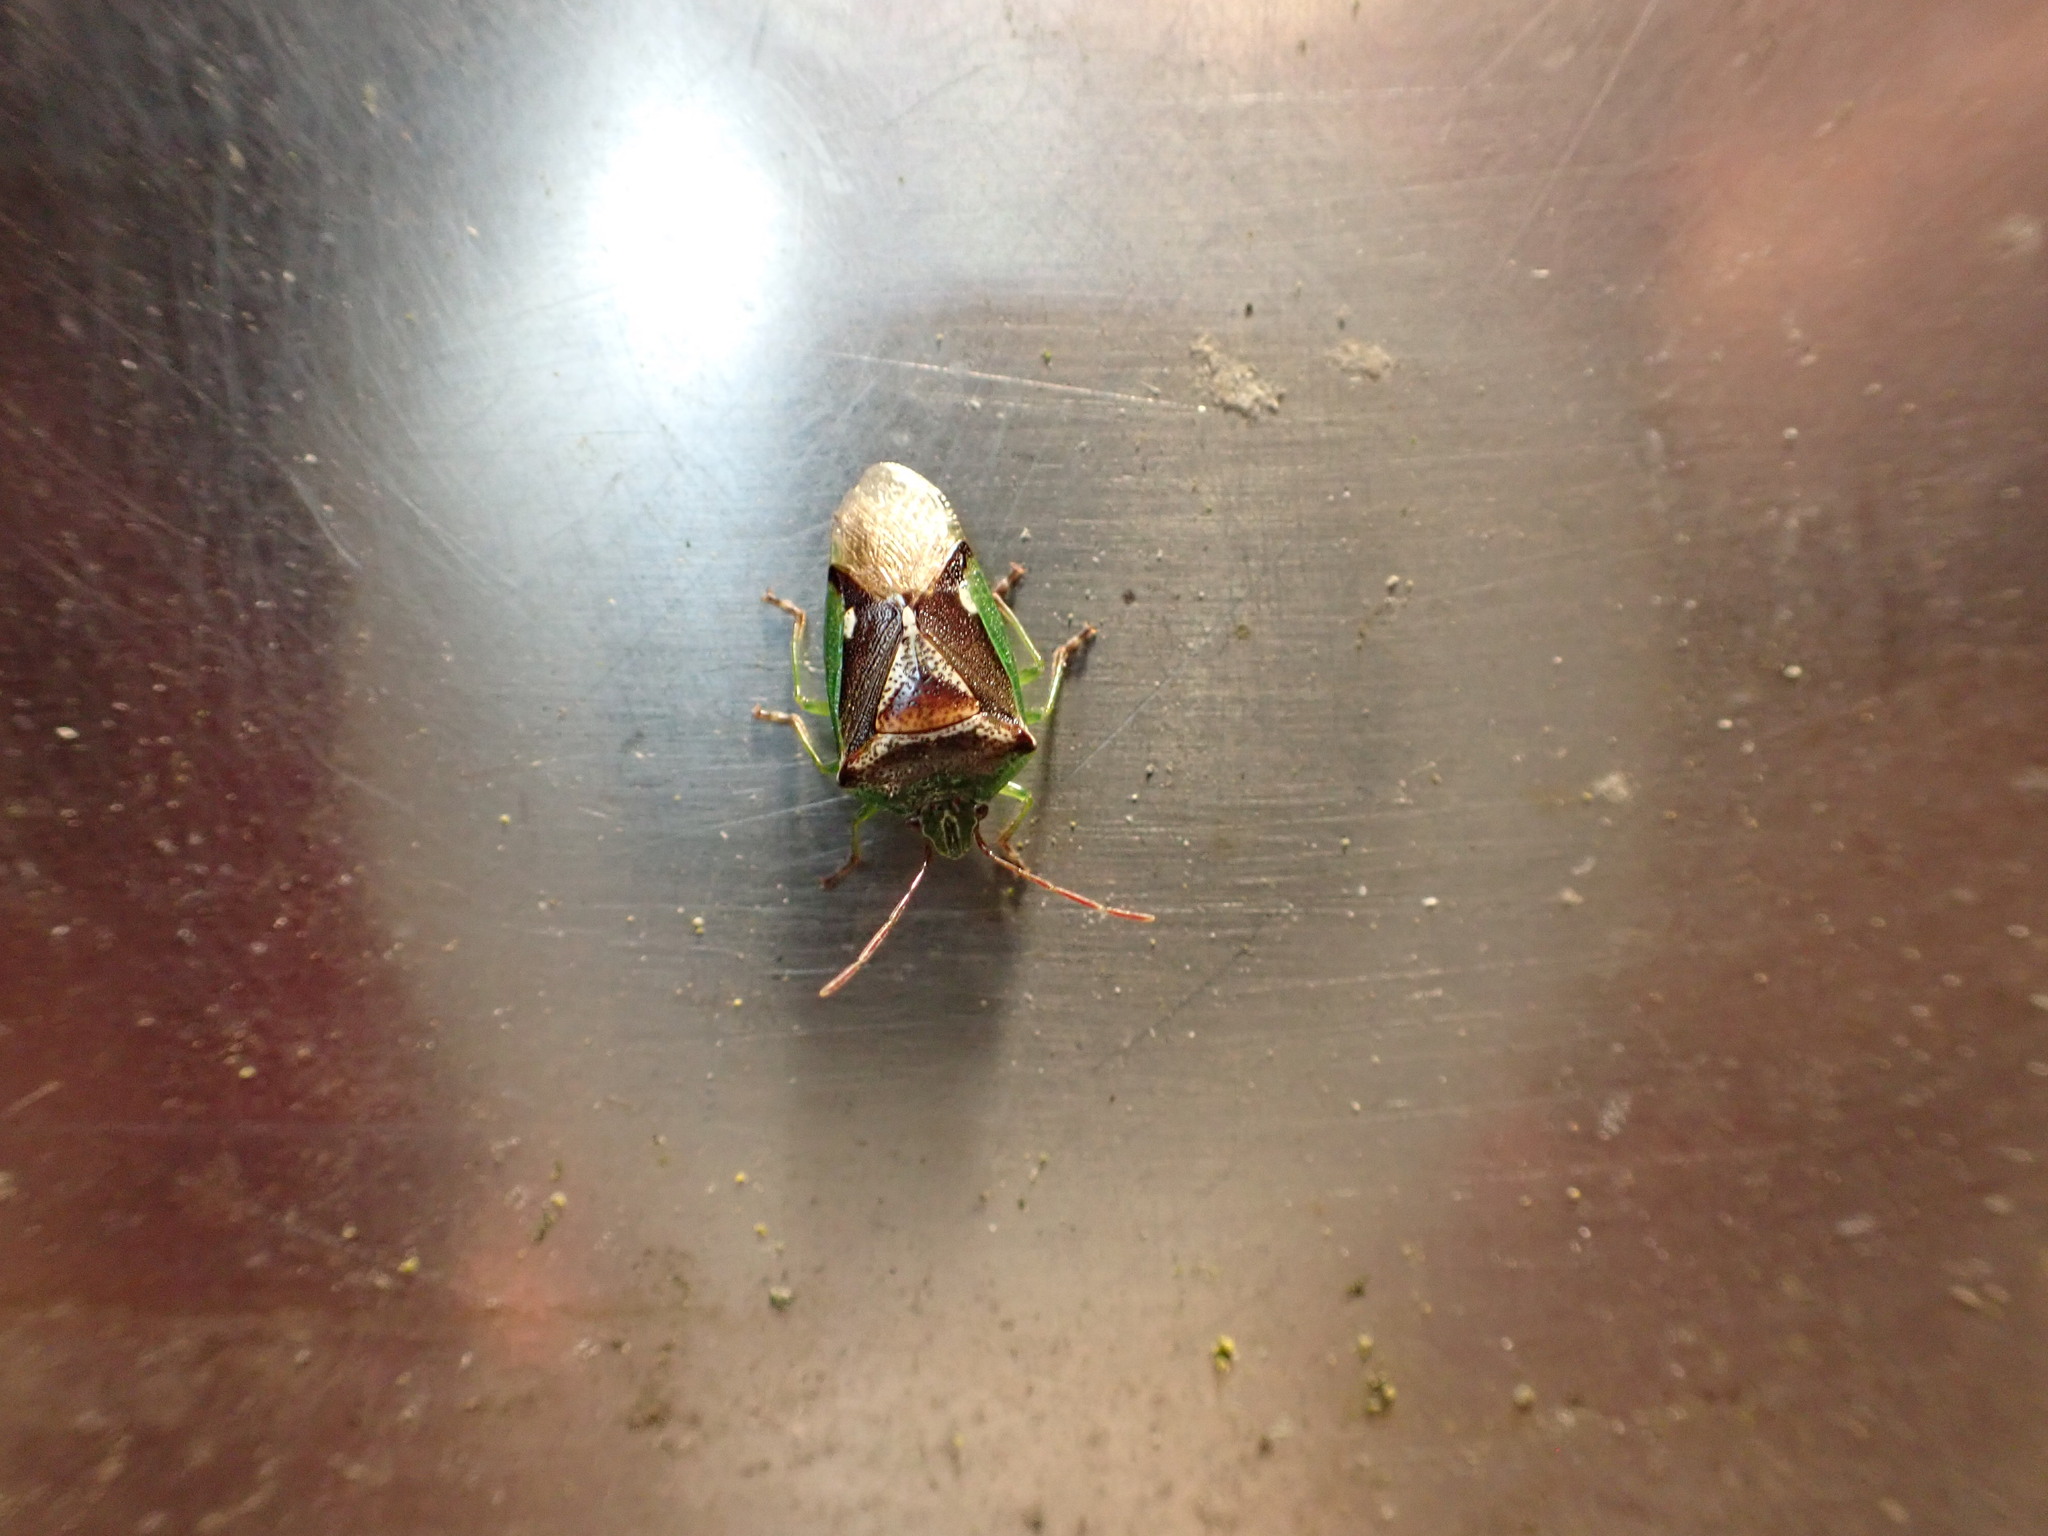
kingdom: Animalia
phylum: Arthropoda
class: Insecta
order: Hemiptera
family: Acanthosomatidae
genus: Oncacontias
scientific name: Oncacontias vittatus
